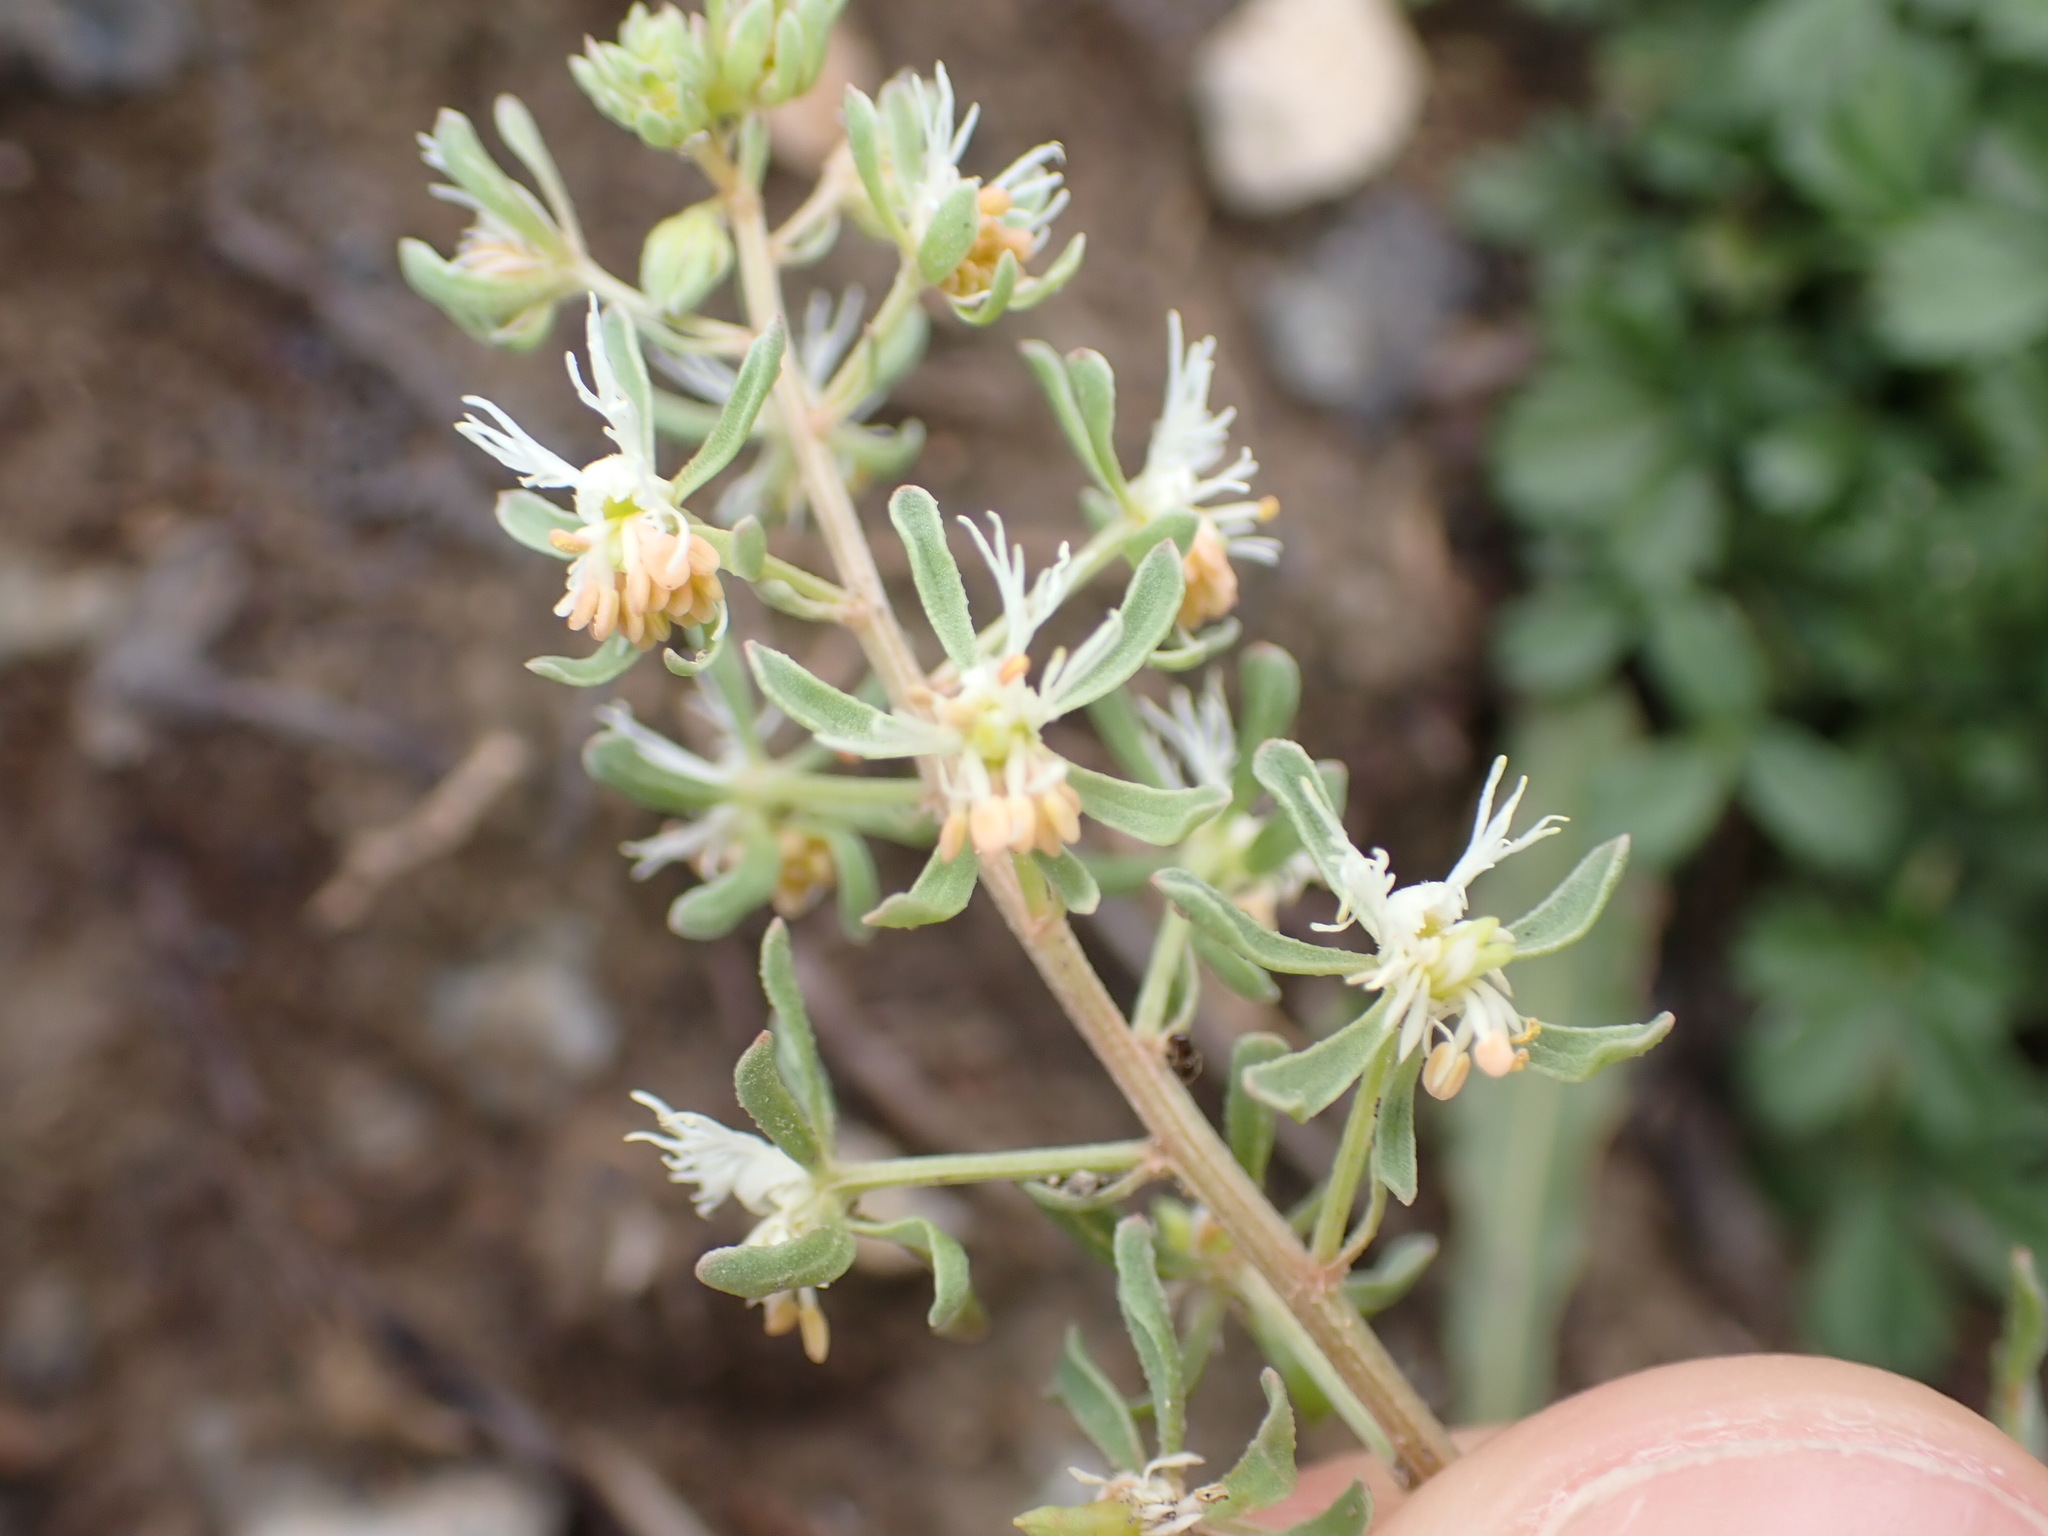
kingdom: Plantae
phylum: Tracheophyta
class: Magnoliopsida
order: Brassicales
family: Resedaceae
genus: Reseda
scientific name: Reseda phyteuma
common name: Corn mignonette
